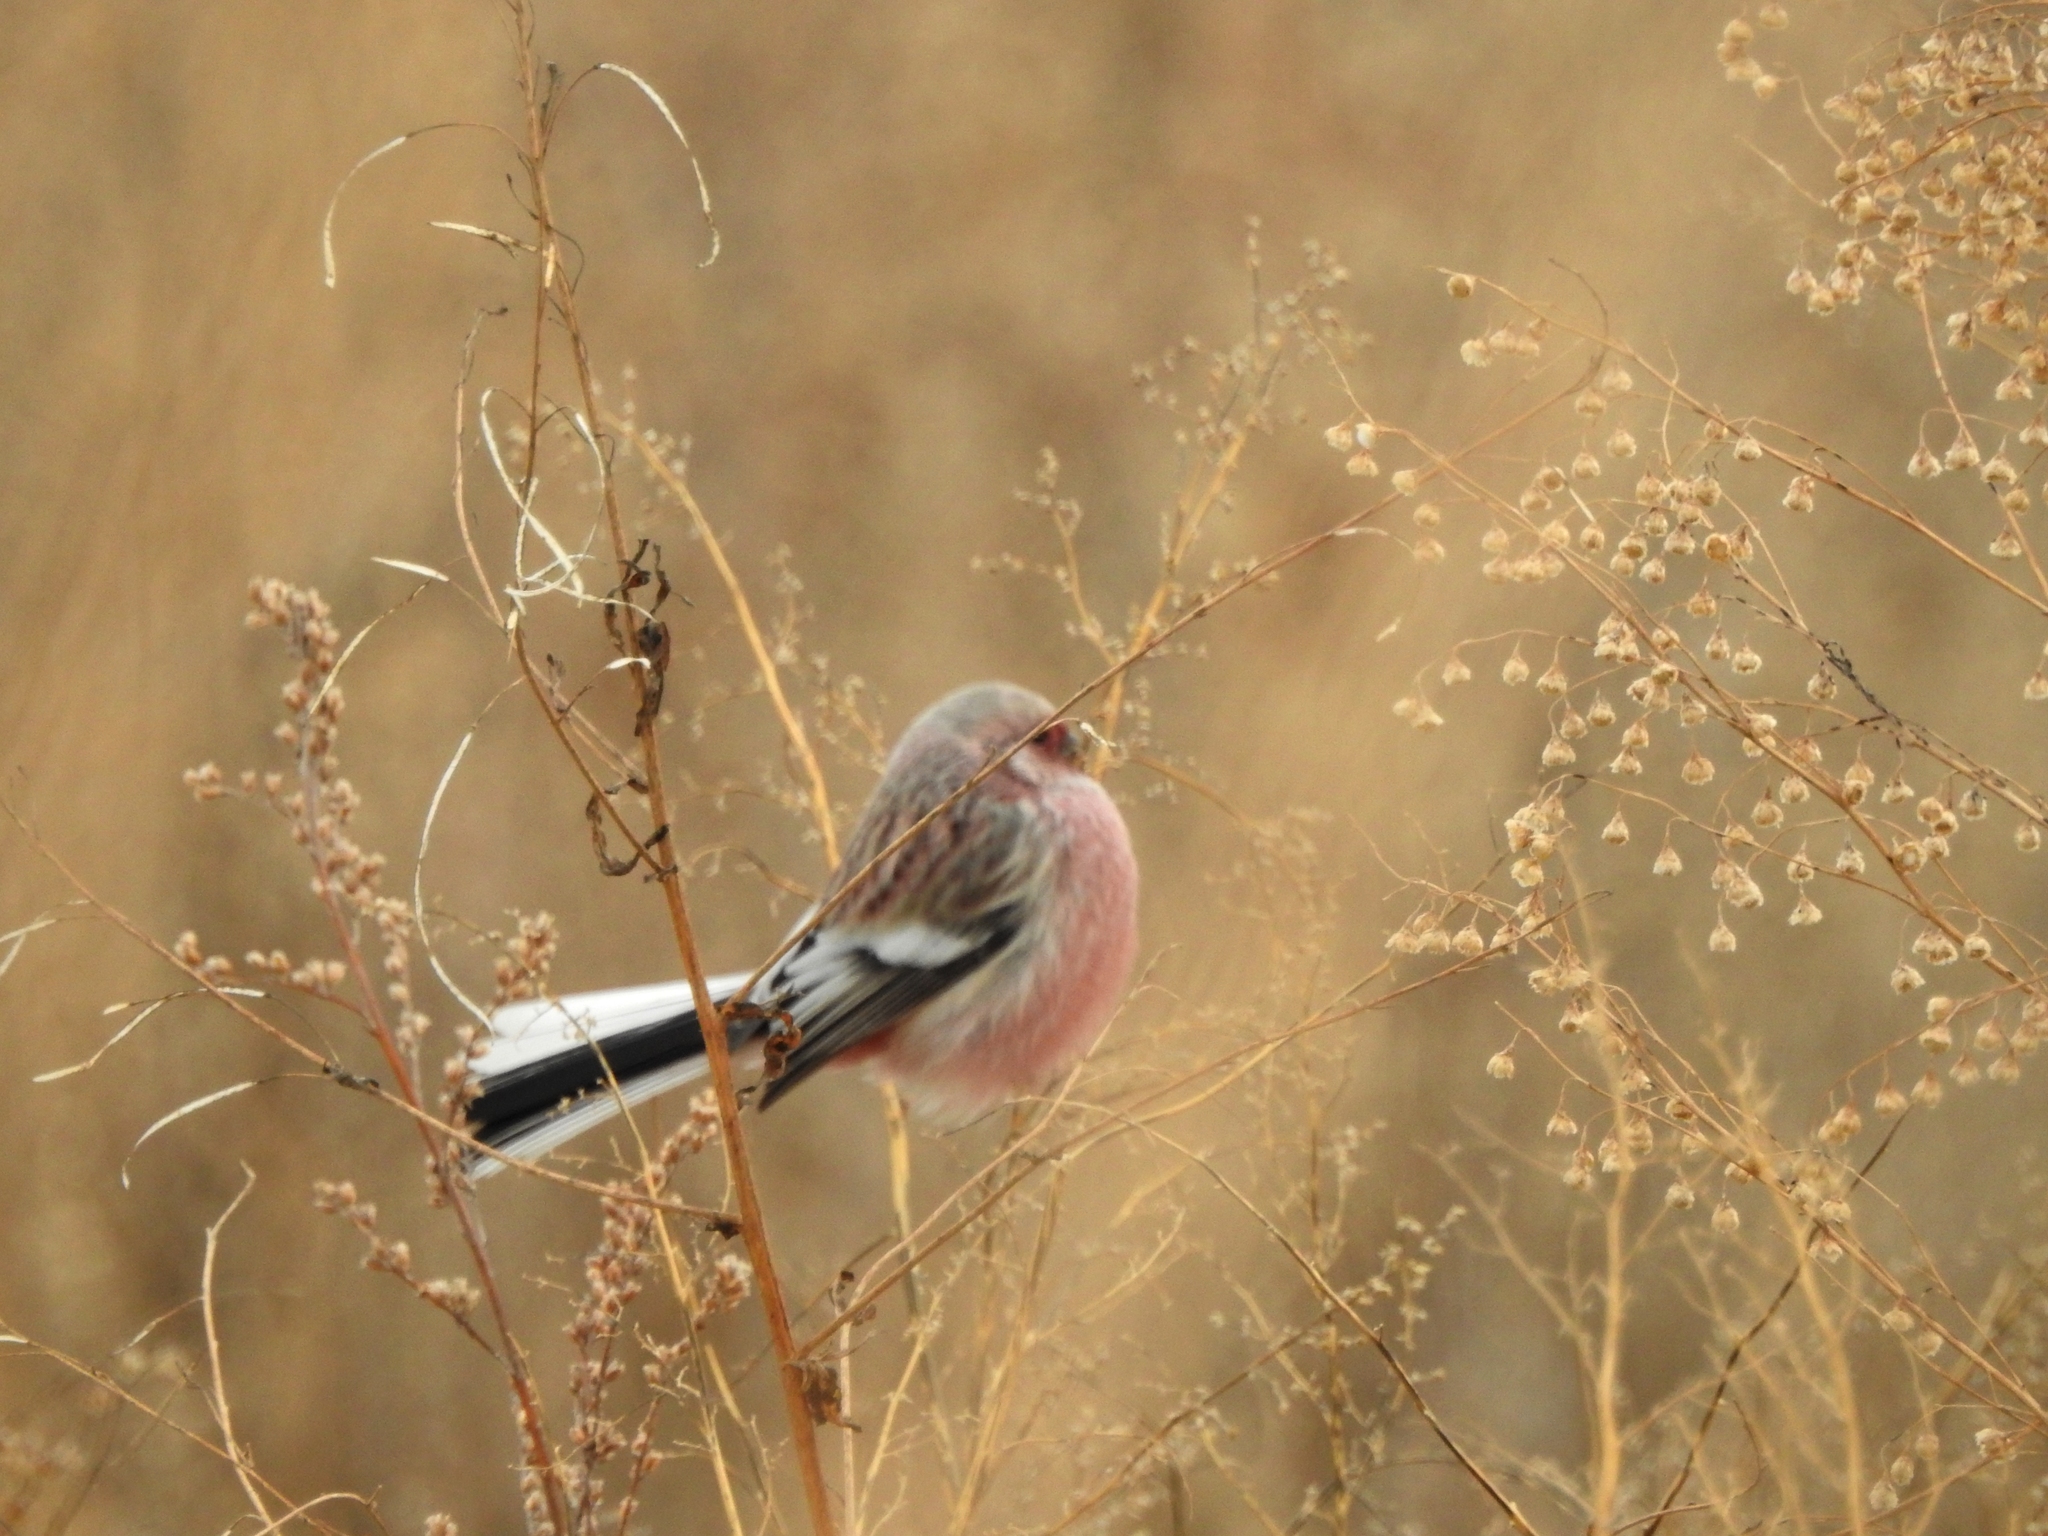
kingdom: Animalia
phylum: Chordata
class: Aves
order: Passeriformes
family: Fringillidae
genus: Carpodacus
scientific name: Carpodacus sibiricus
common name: Long-tailed rosefinch
